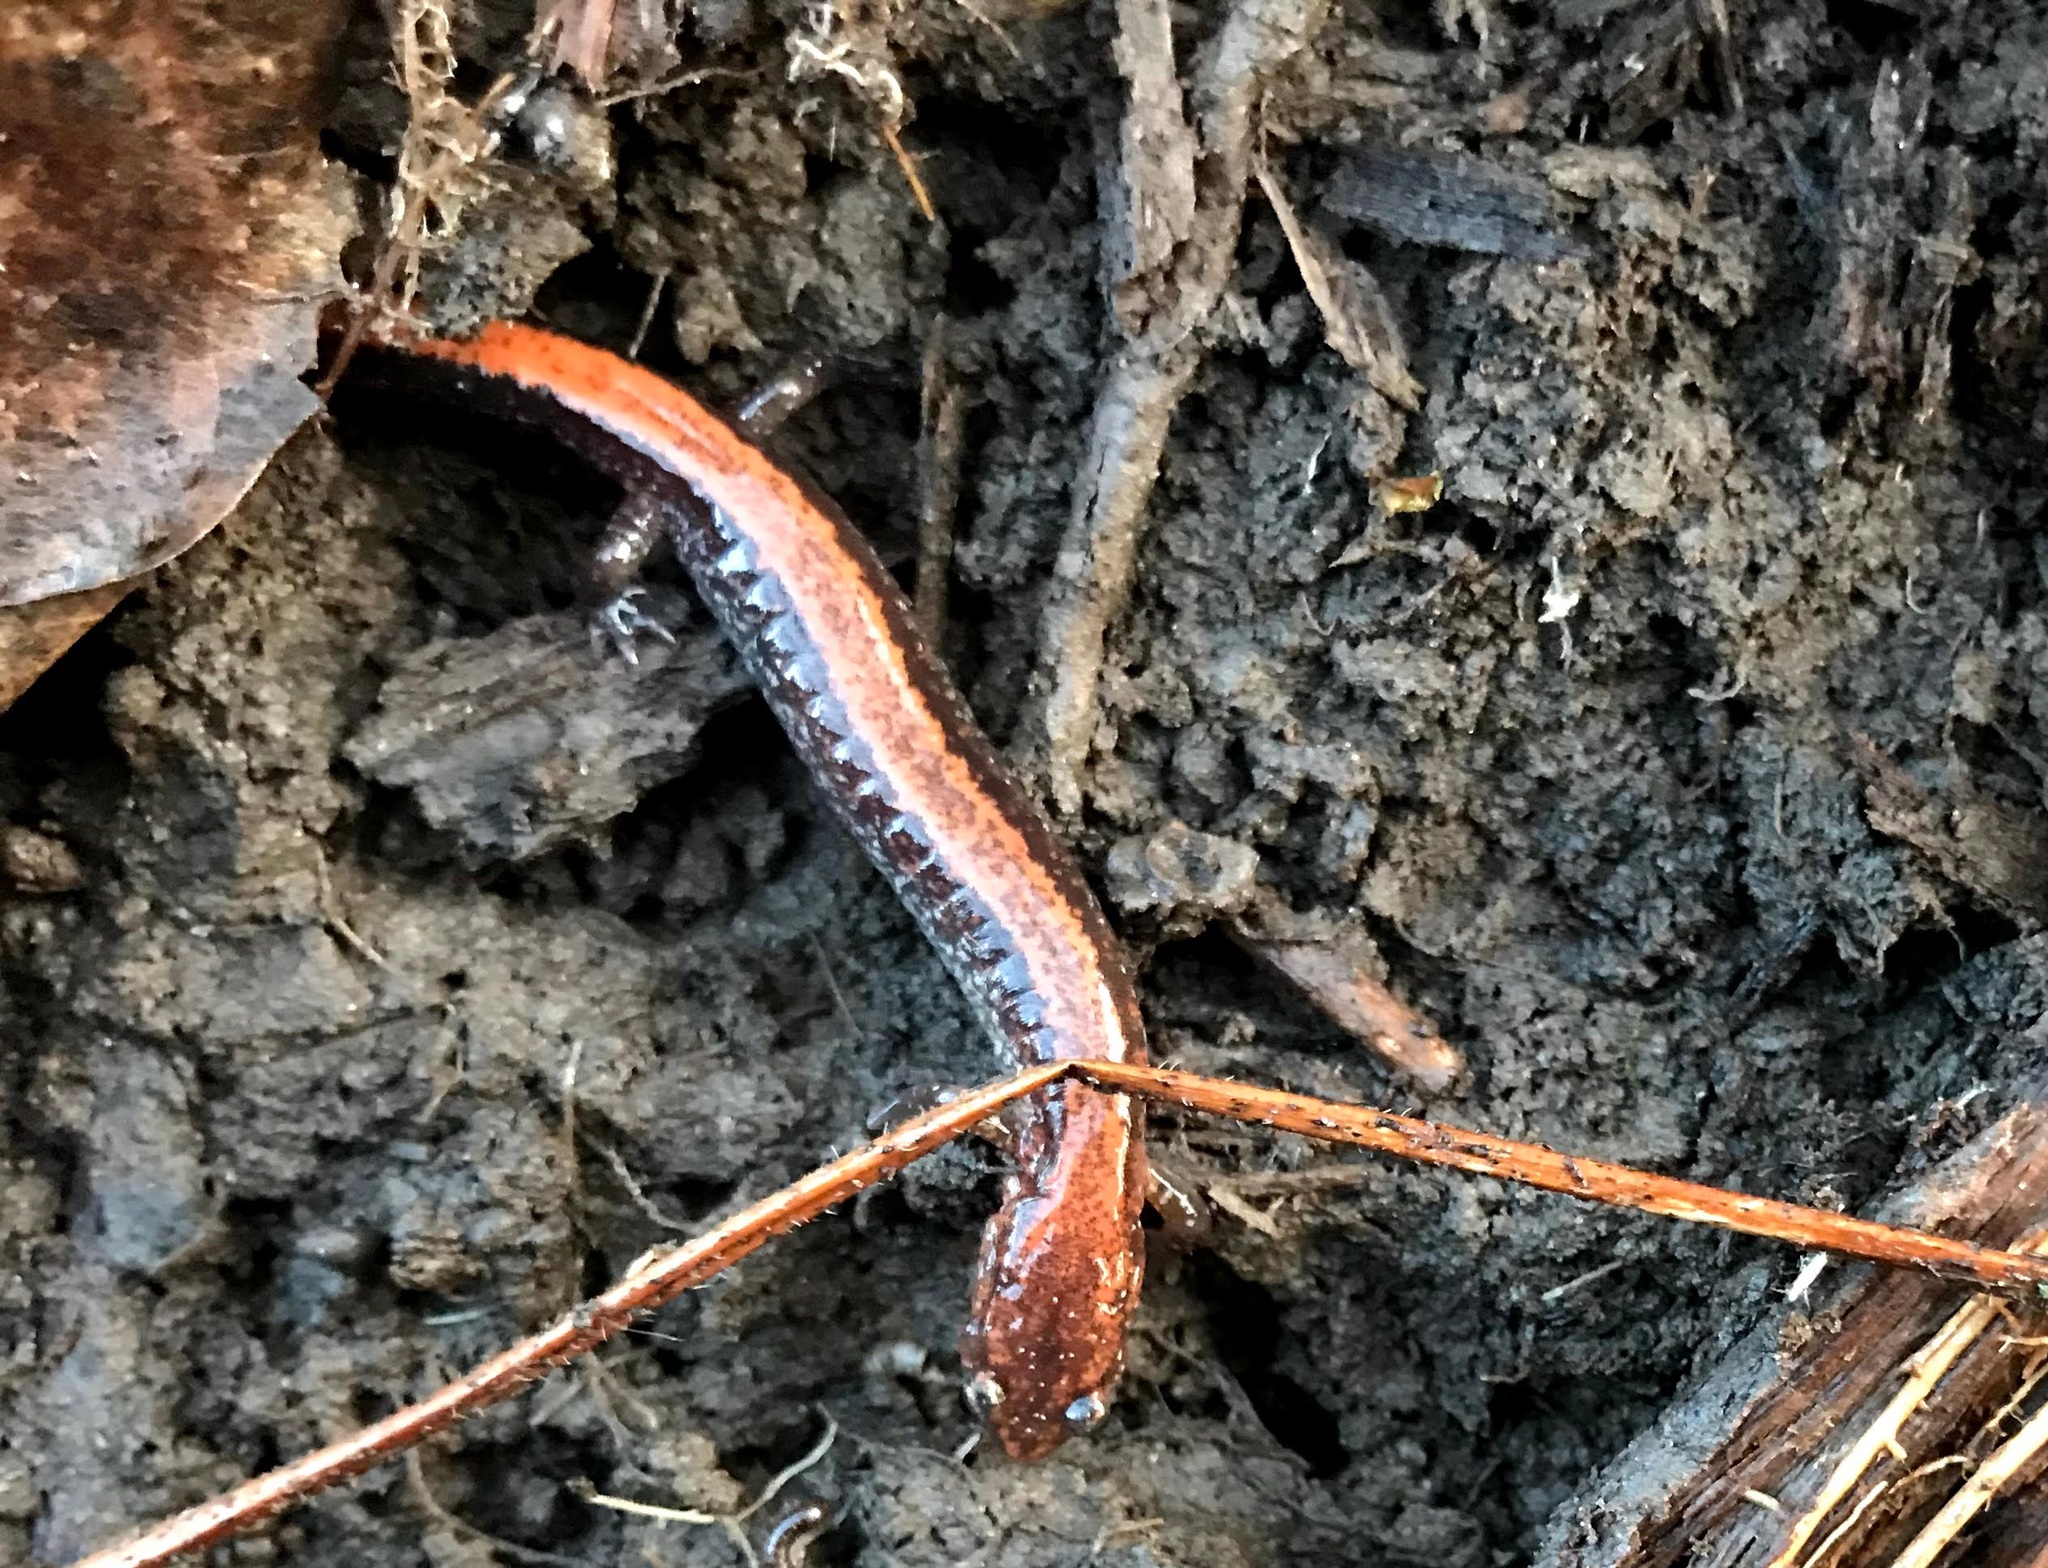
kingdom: Animalia
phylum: Chordata
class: Amphibia
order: Caudata
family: Plethodontidae
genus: Plethodon
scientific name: Plethodon cinereus
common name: Redback salamander
